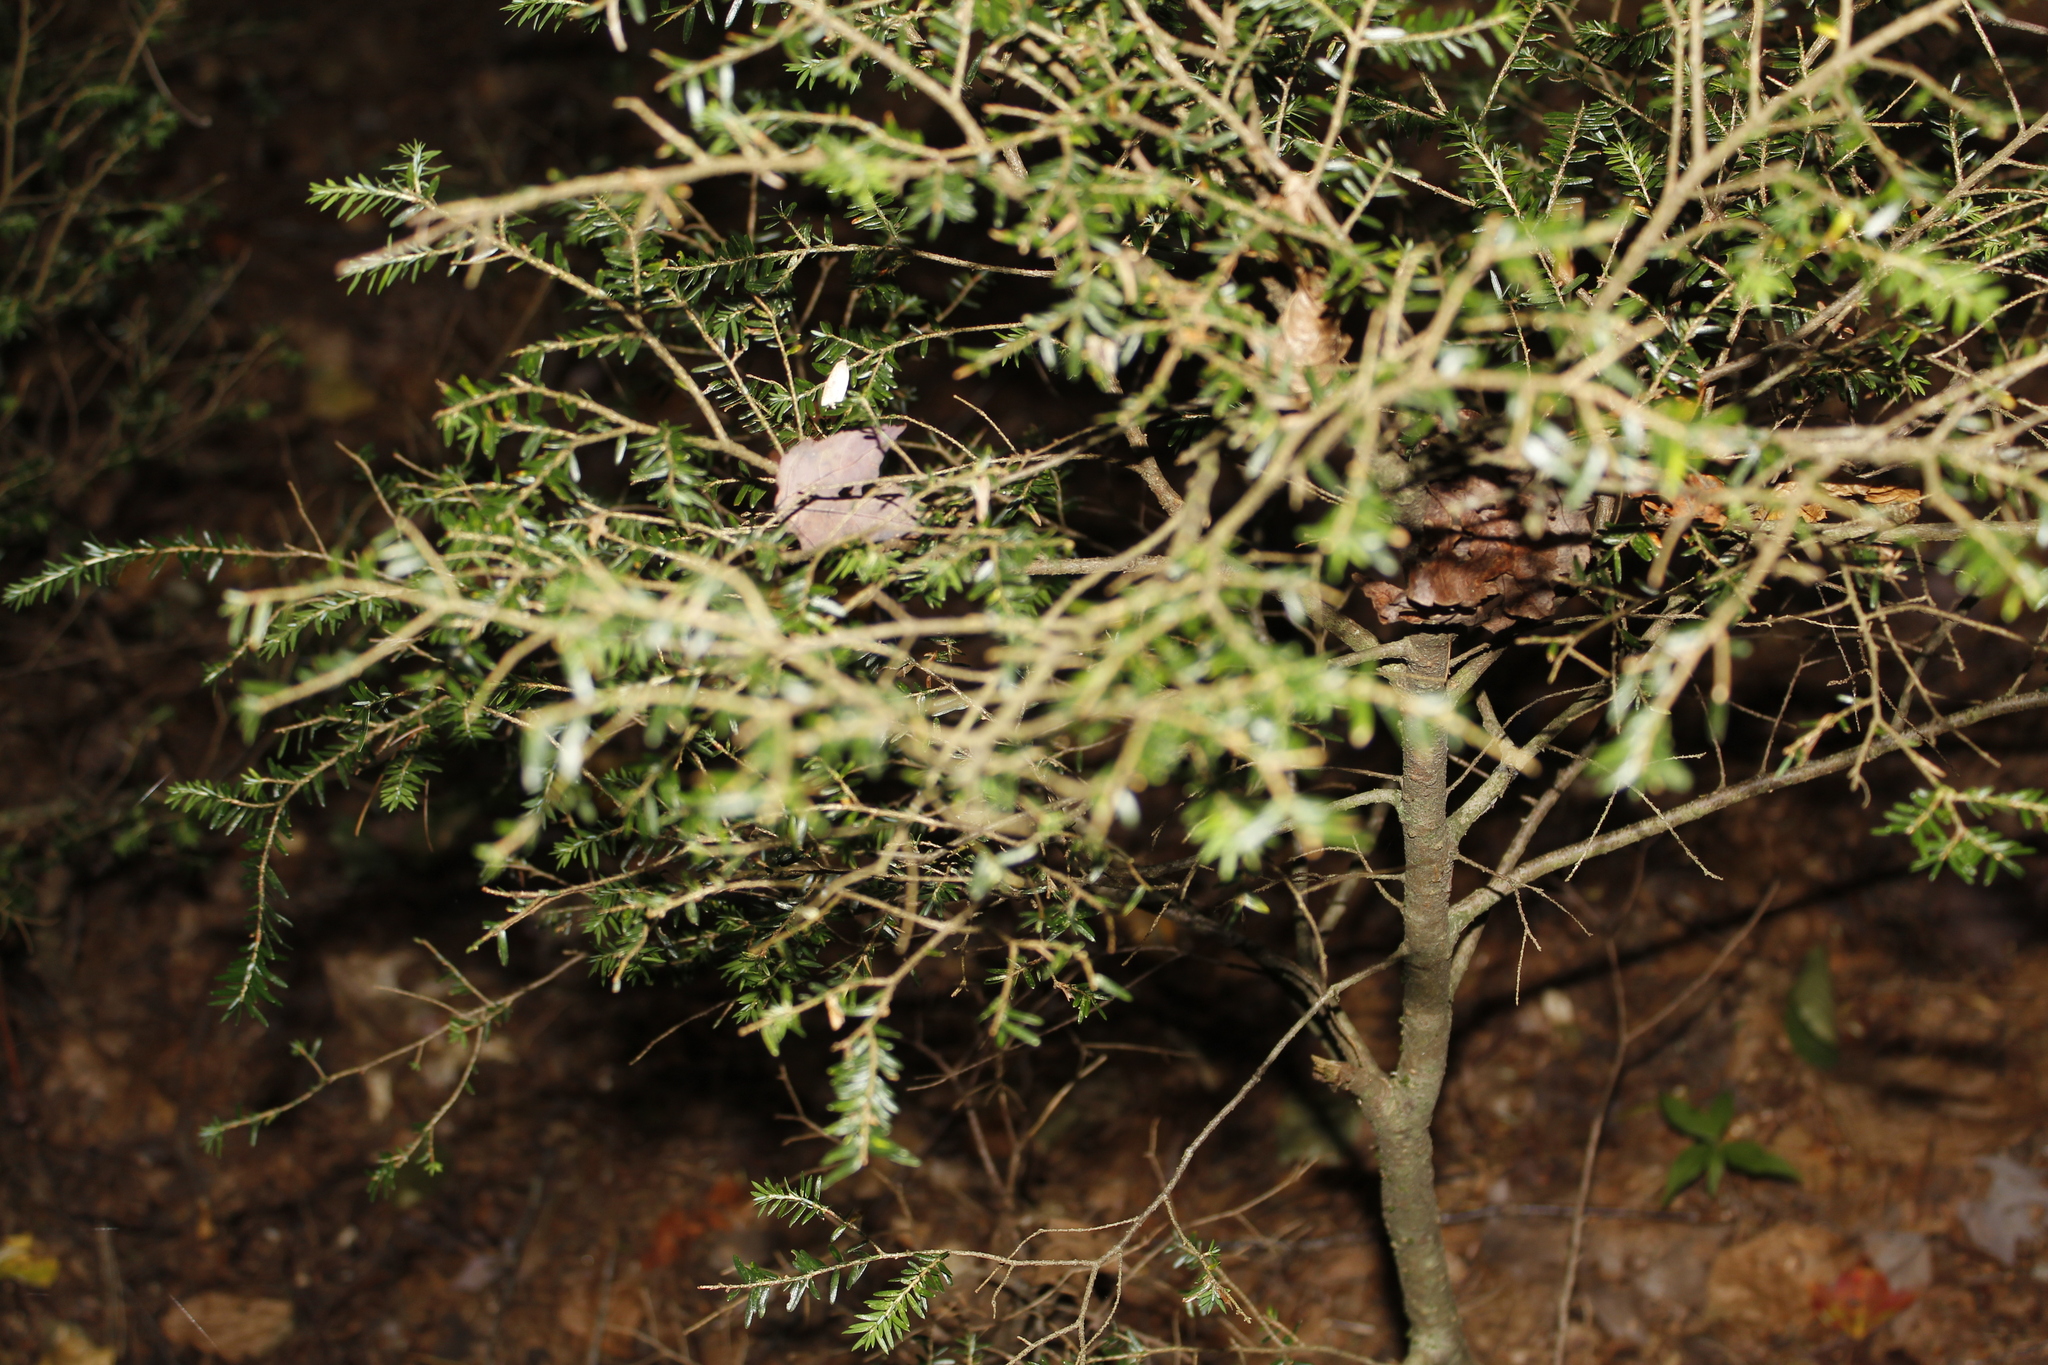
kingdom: Plantae
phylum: Tracheophyta
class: Pinopsida
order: Pinales
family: Pinaceae
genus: Tsuga
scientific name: Tsuga canadensis
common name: Eastern hemlock
